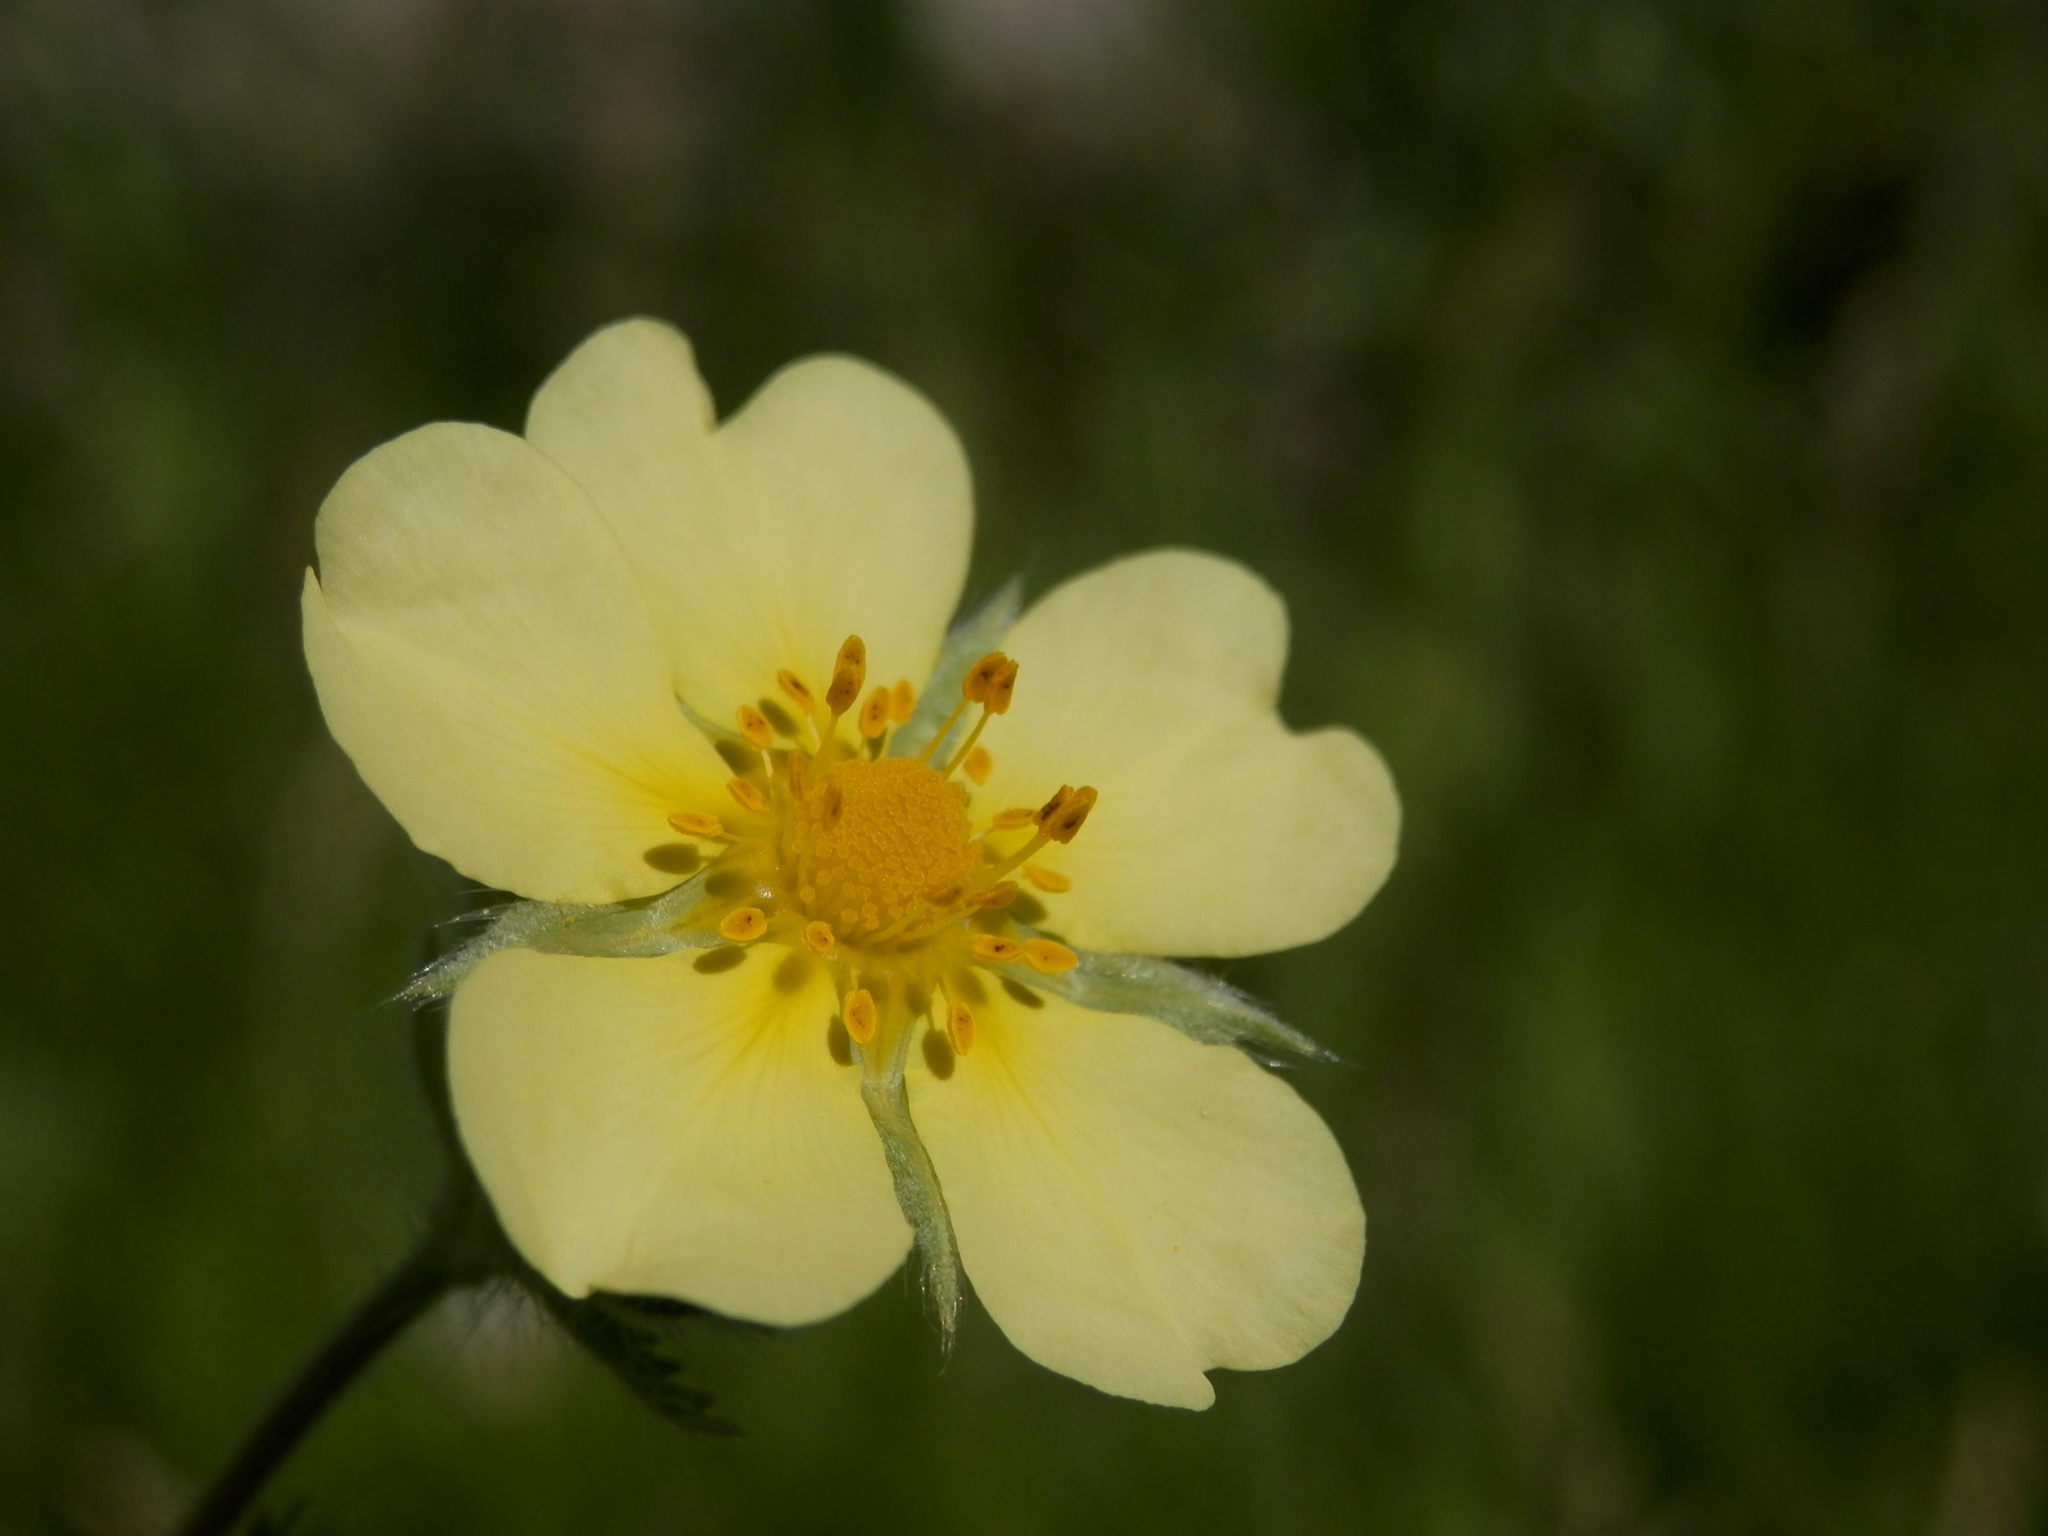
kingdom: Plantae
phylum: Tracheophyta
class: Magnoliopsida
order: Rosales
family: Rosaceae
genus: Potentilla
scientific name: Potentilla recta
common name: Sulphur cinquefoil
